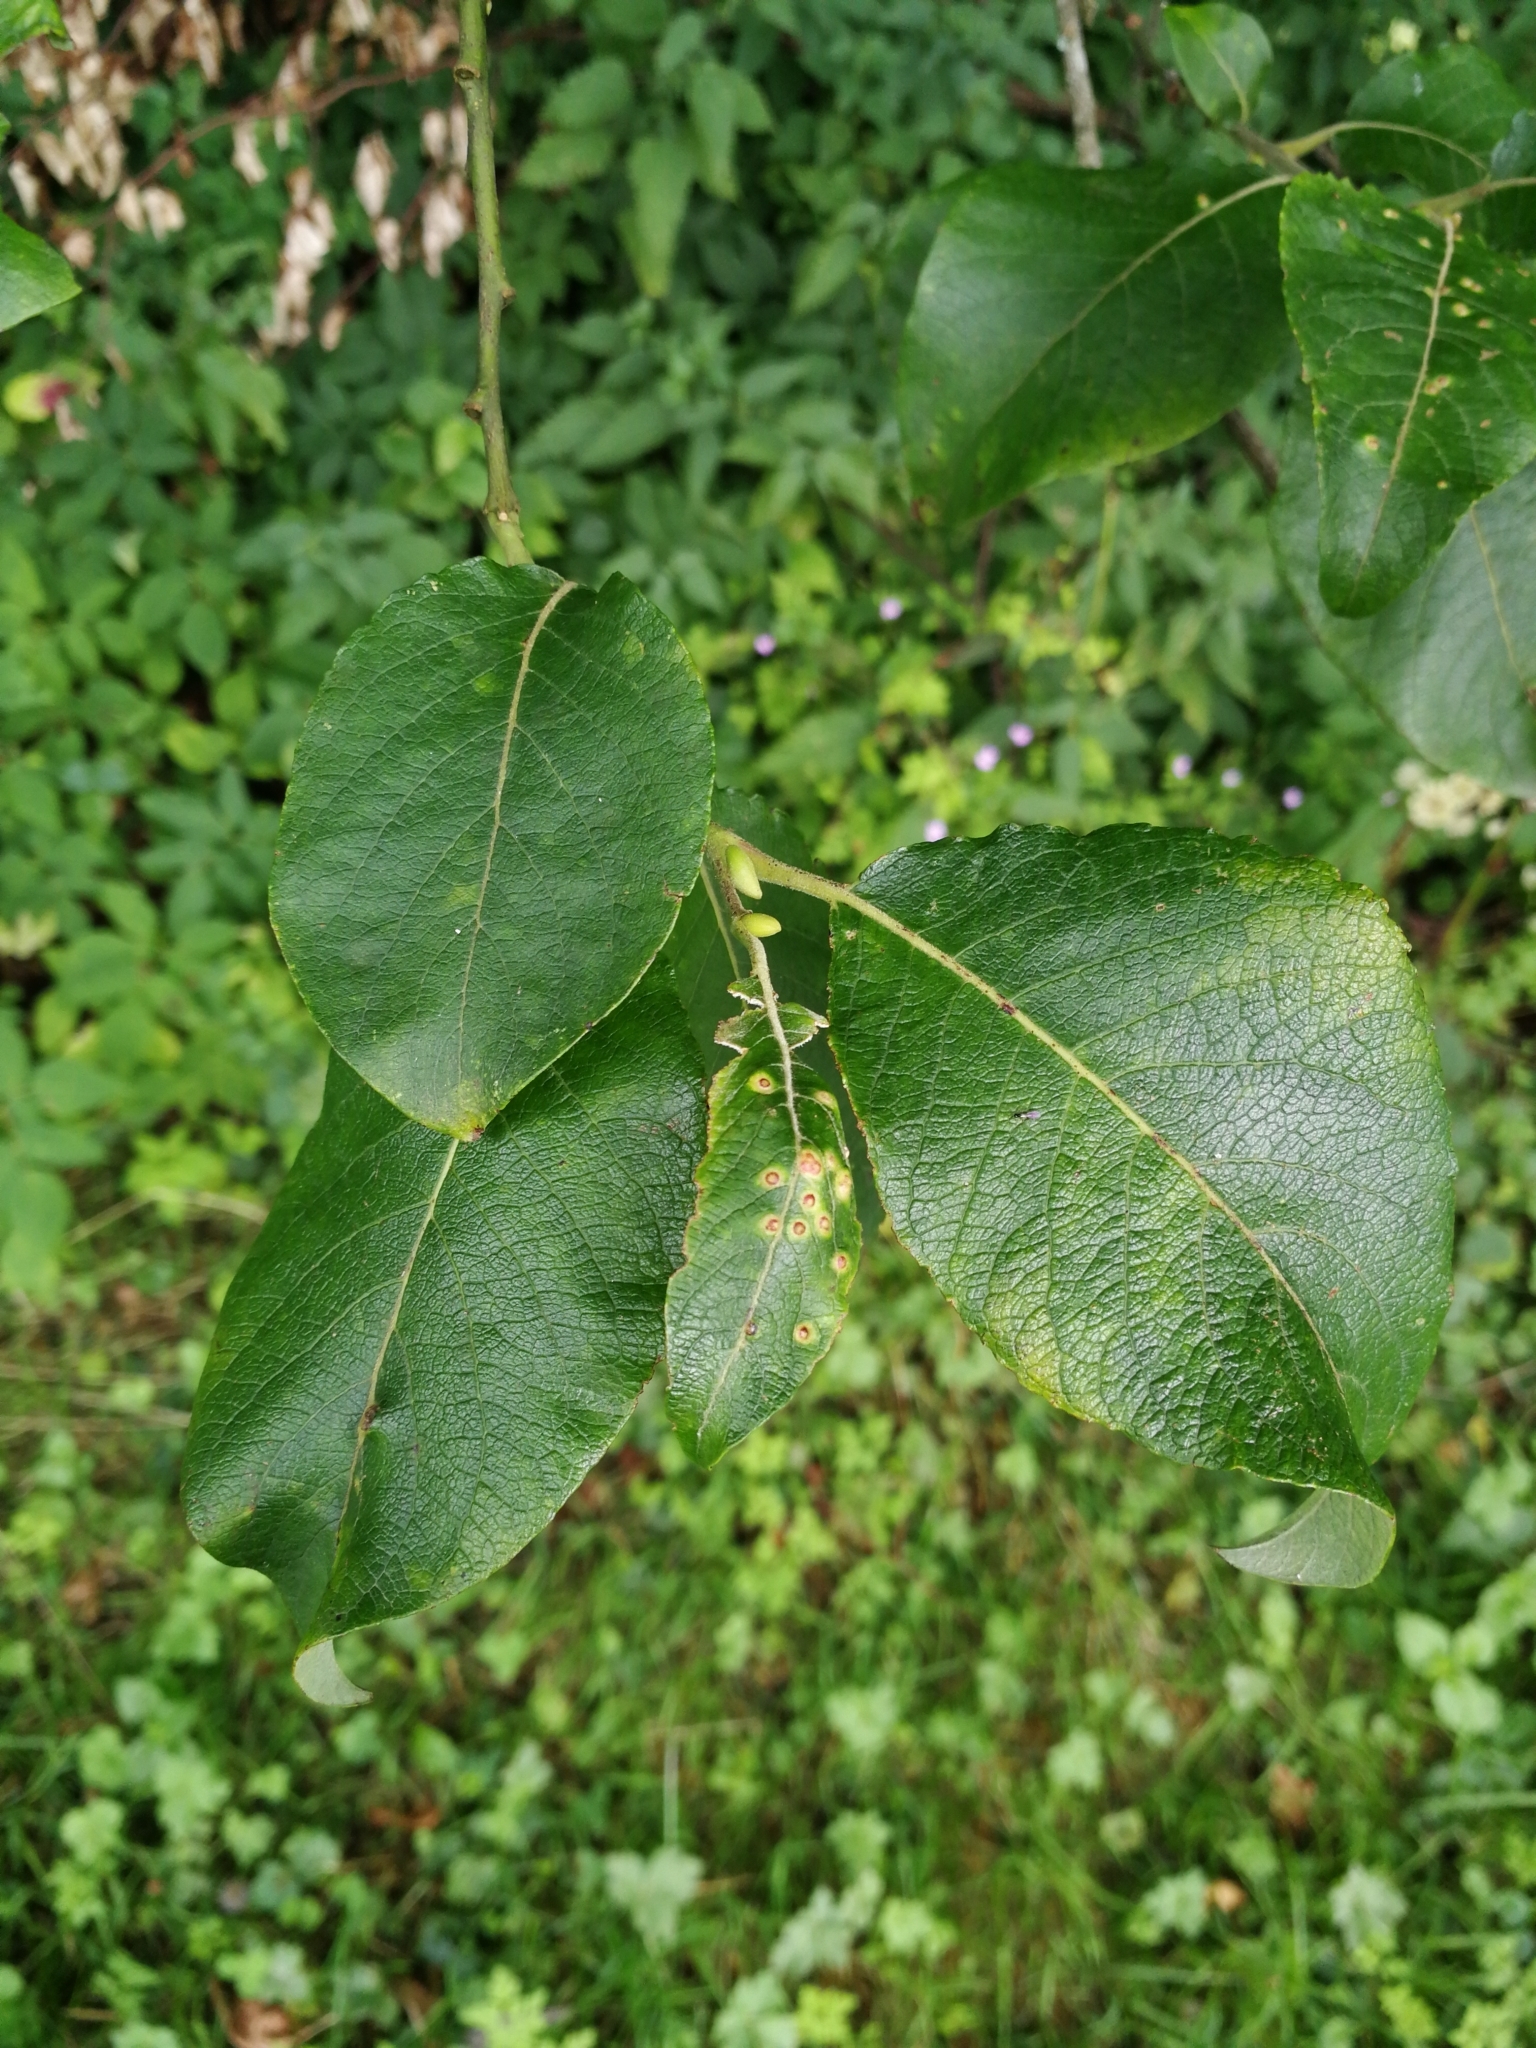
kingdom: Plantae
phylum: Tracheophyta
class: Magnoliopsida
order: Malpighiales
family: Salicaceae
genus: Salix
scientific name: Salix caprea
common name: Goat willow
